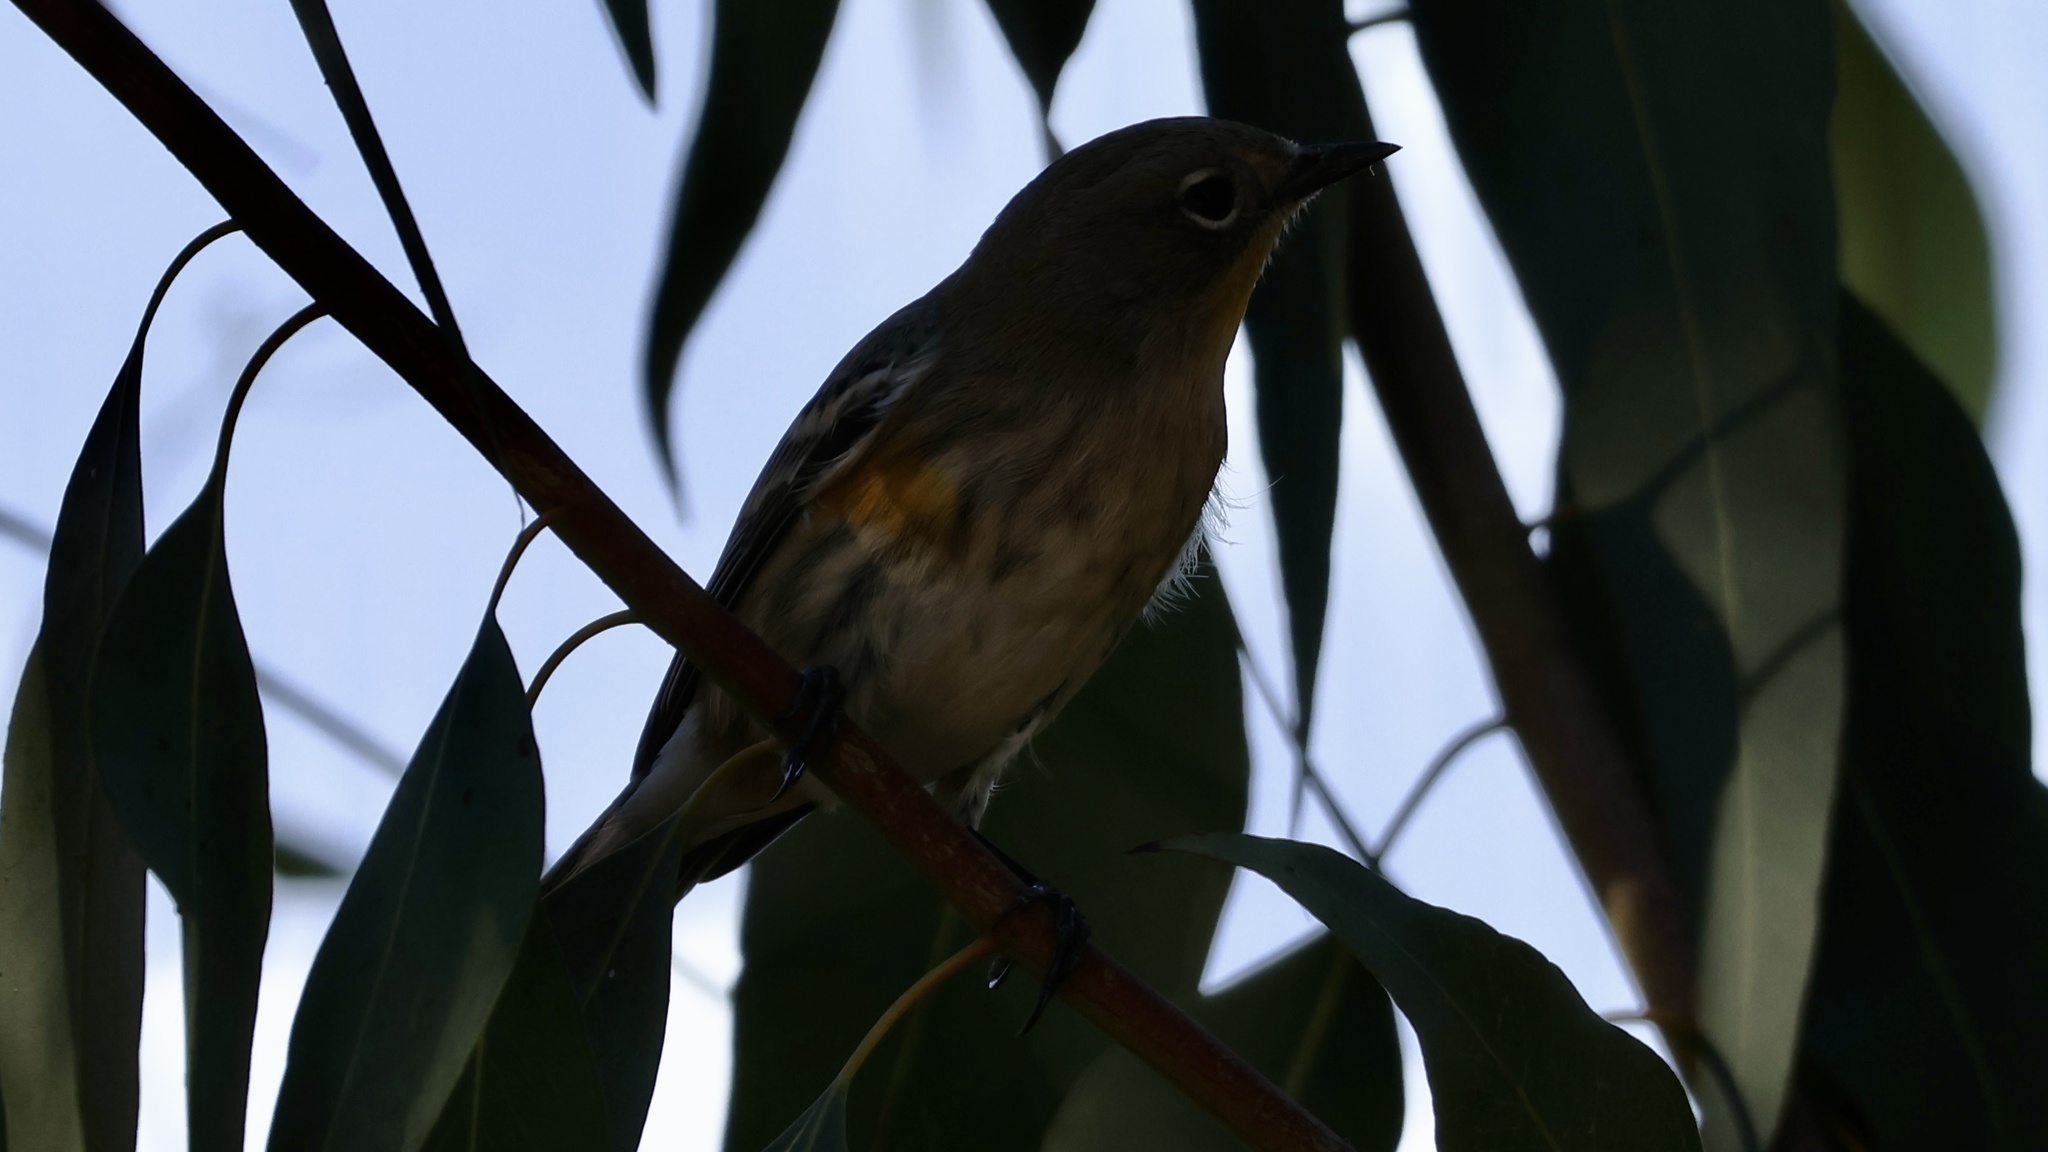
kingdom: Animalia
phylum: Chordata
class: Aves
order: Passeriformes
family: Parulidae
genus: Setophaga
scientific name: Setophaga coronata
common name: Myrtle warbler
